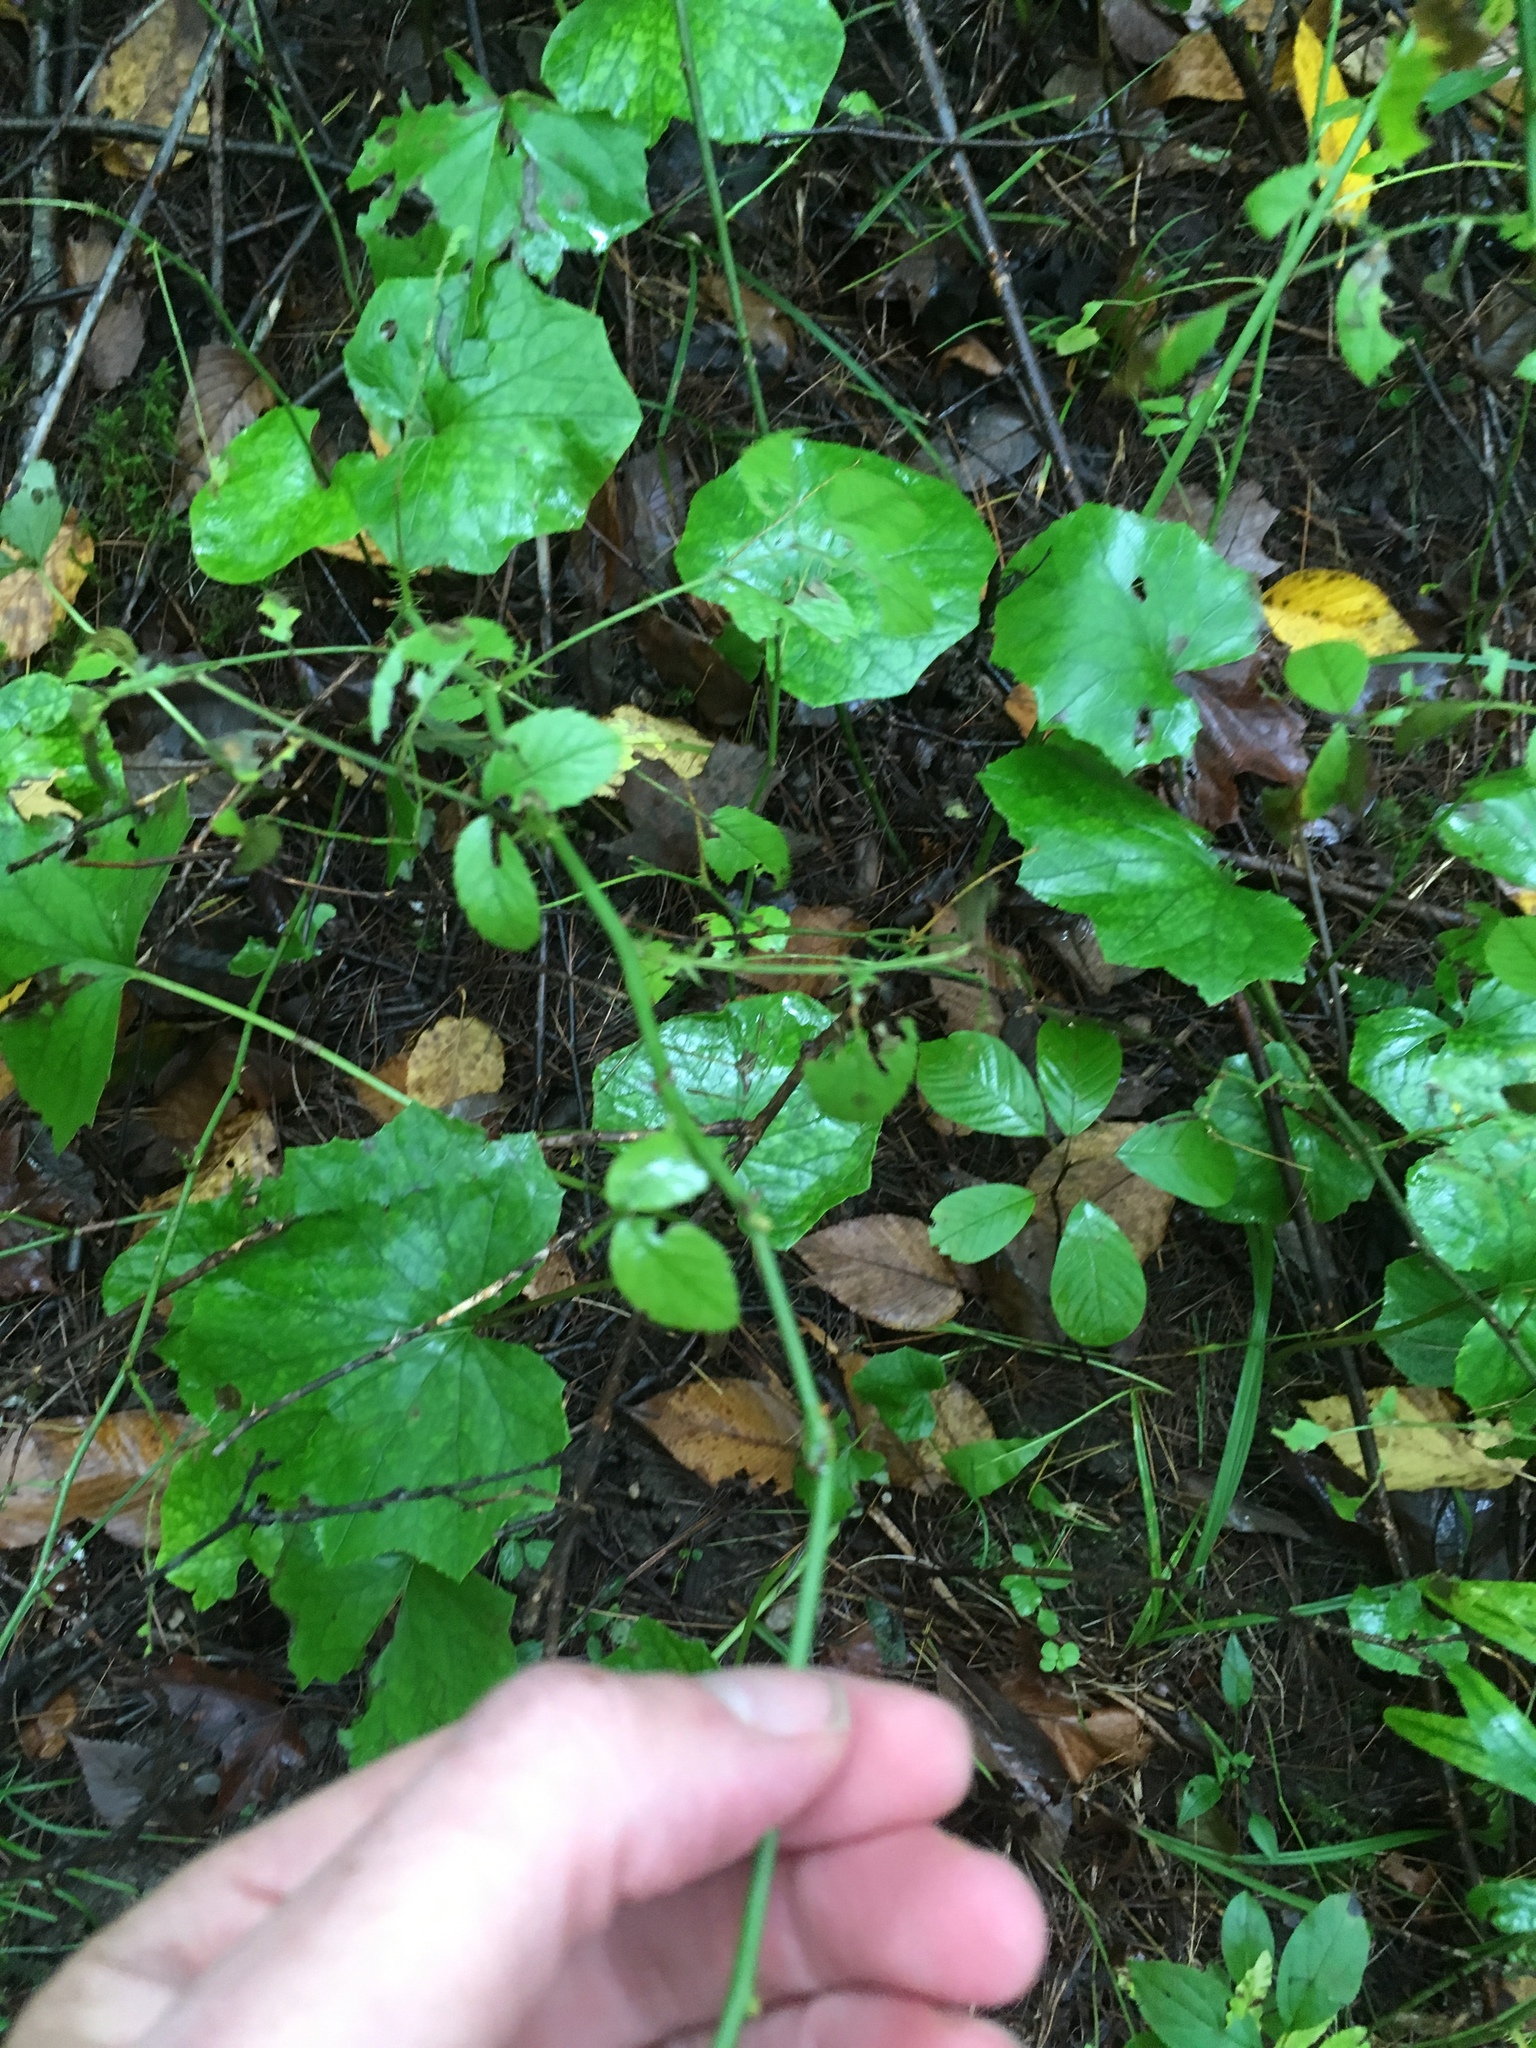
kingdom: Plantae
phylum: Tracheophyta
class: Magnoliopsida
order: Rosales
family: Rosaceae
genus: Rosa
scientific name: Rosa multiflora
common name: Multiflora rose
